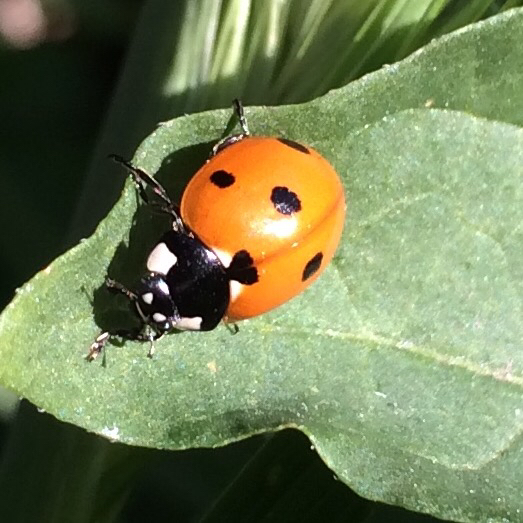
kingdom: Animalia
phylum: Arthropoda
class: Insecta
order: Coleoptera
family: Coccinellidae
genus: Coccinella
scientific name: Coccinella septempunctata
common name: Sevenspotted lady beetle
